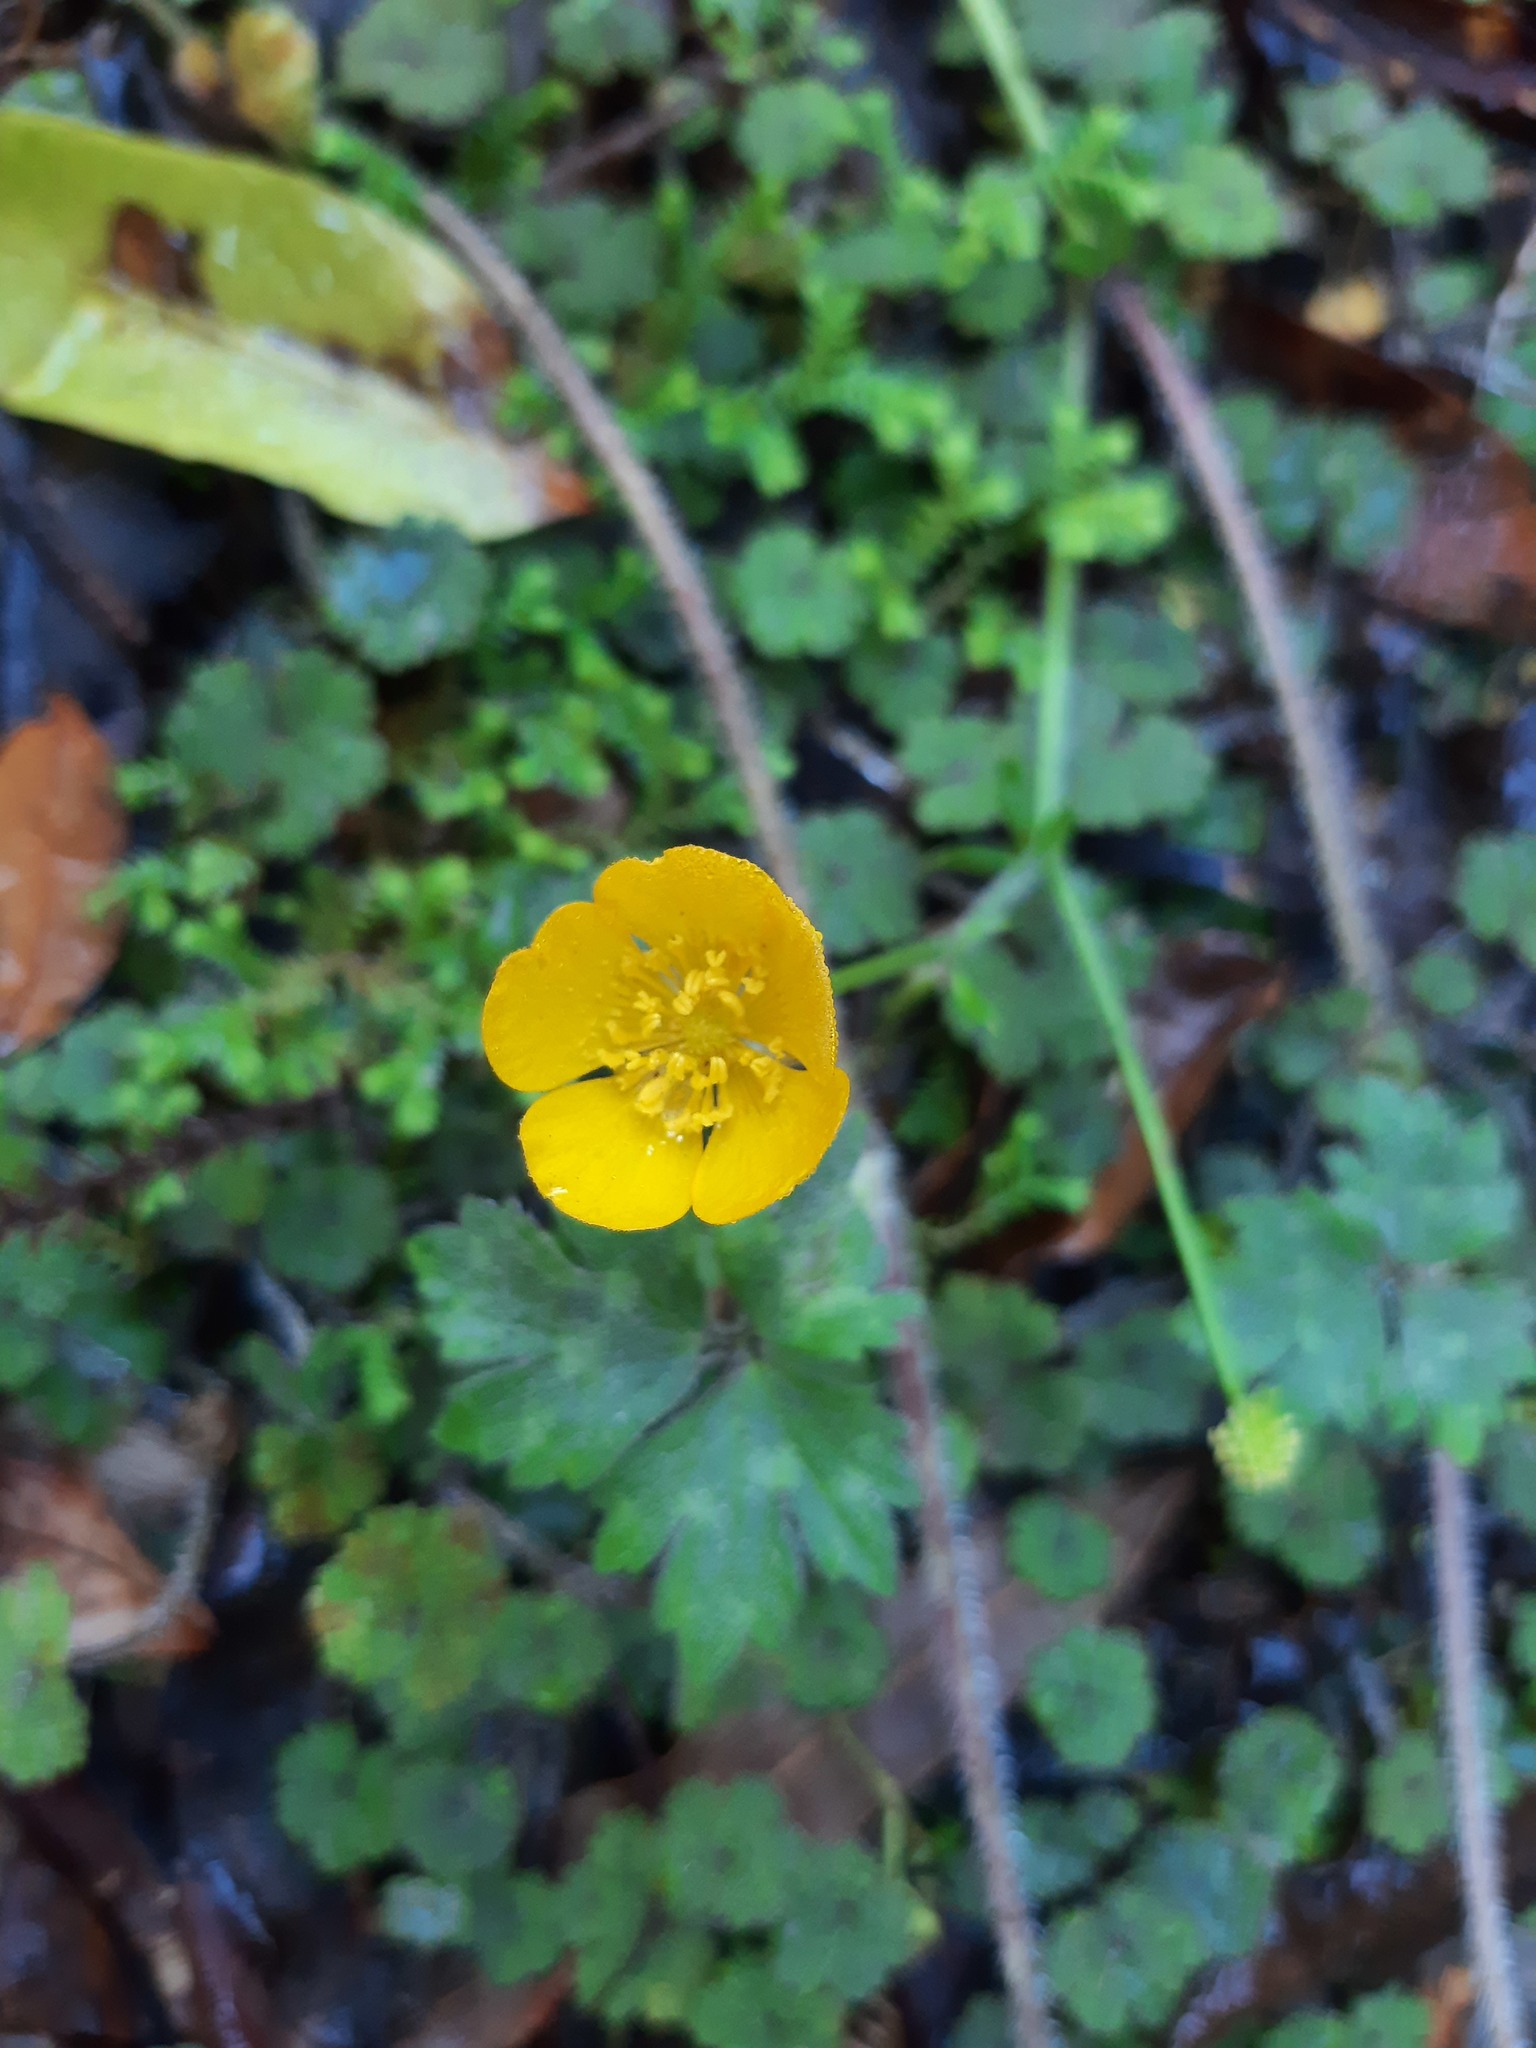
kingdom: Plantae
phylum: Tracheophyta
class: Magnoliopsida
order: Ranunculales
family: Ranunculaceae
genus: Ranunculus
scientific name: Ranunculus repens
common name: Creeping buttercup
